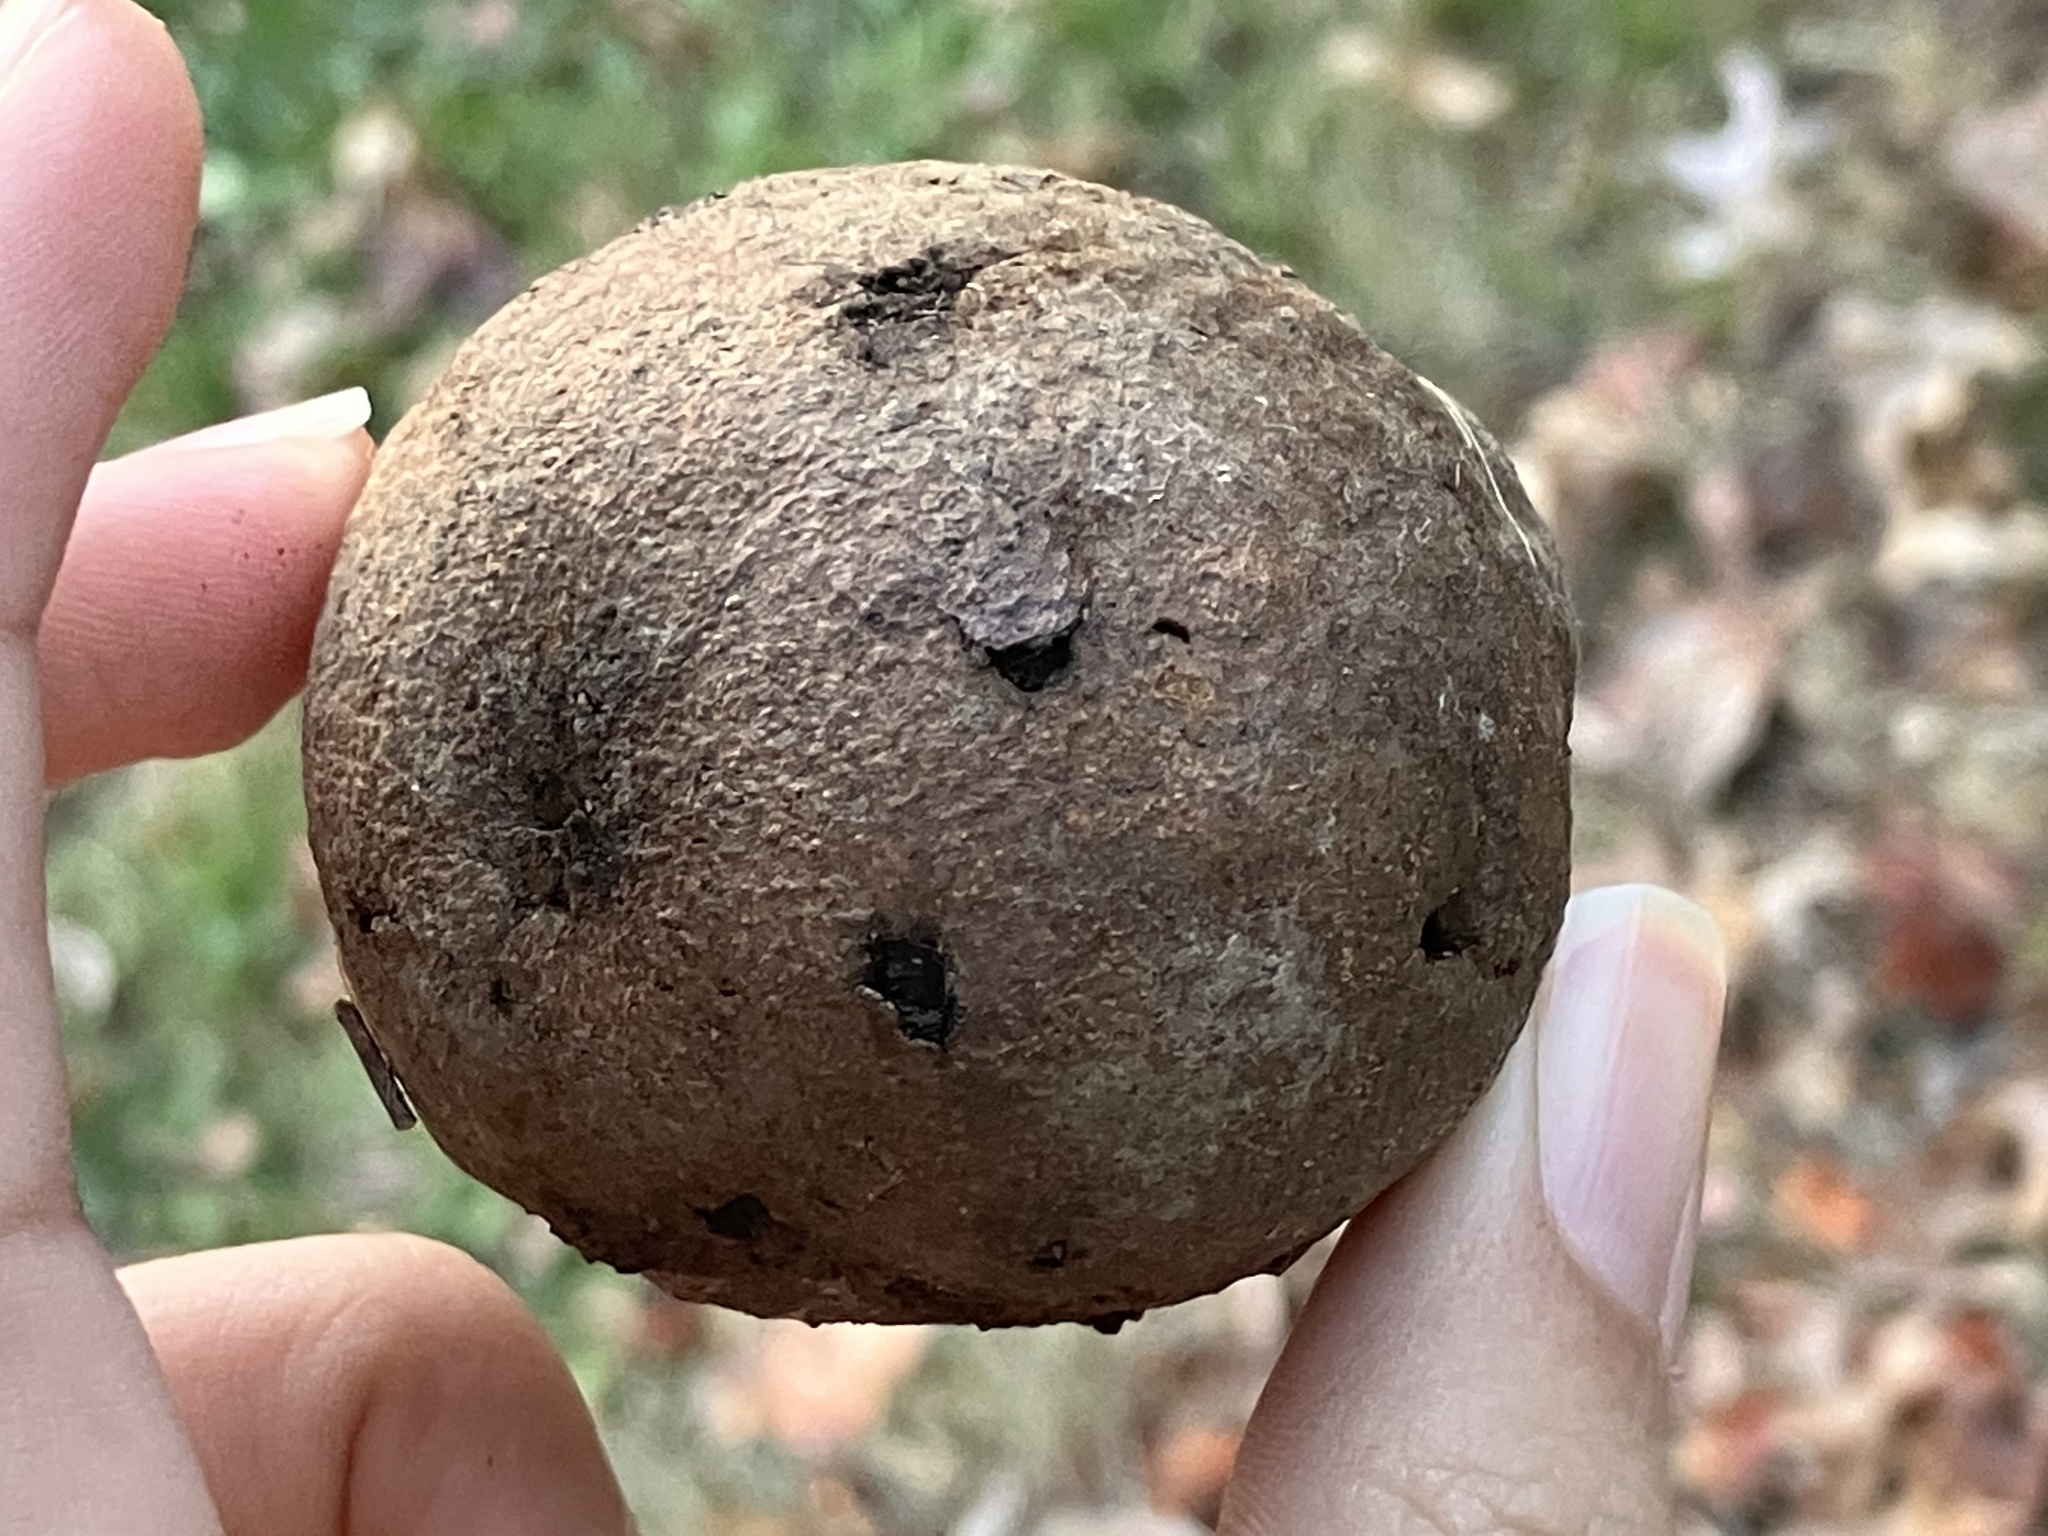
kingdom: Plantae
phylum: Tracheophyta
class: Magnoliopsida
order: Fagales
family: Juglandaceae
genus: Juglans
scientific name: Juglans nigra
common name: Black walnut
